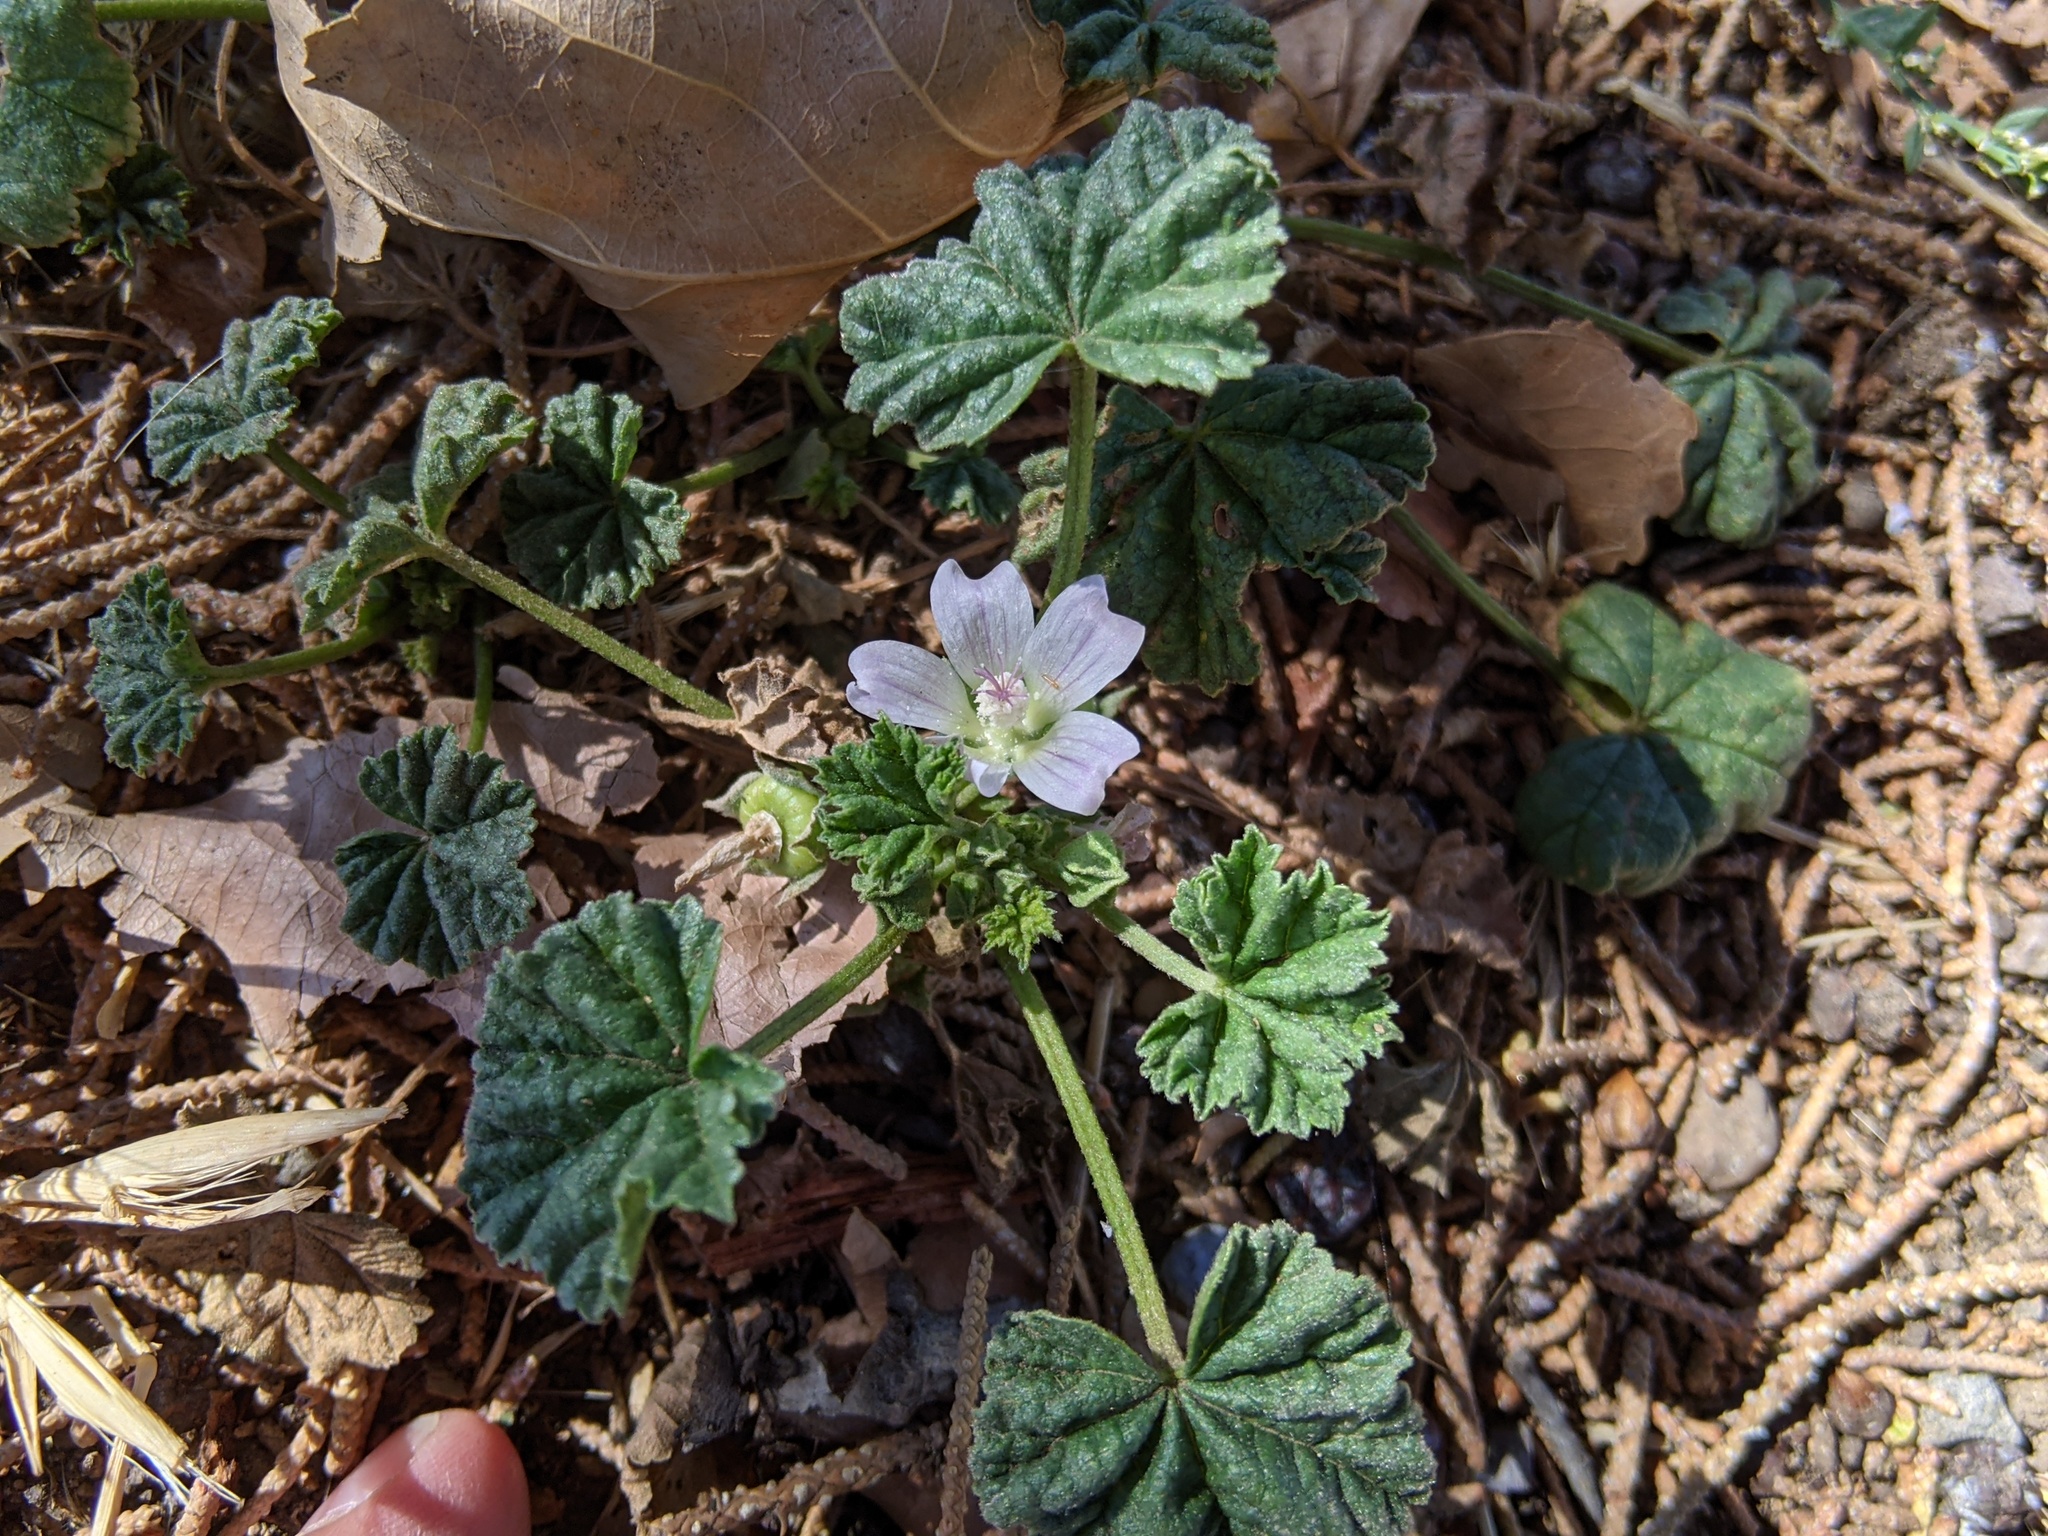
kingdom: Plantae
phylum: Tracheophyta
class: Magnoliopsida
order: Malvales
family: Malvaceae
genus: Malva
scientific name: Malva neglecta
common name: Common mallow
